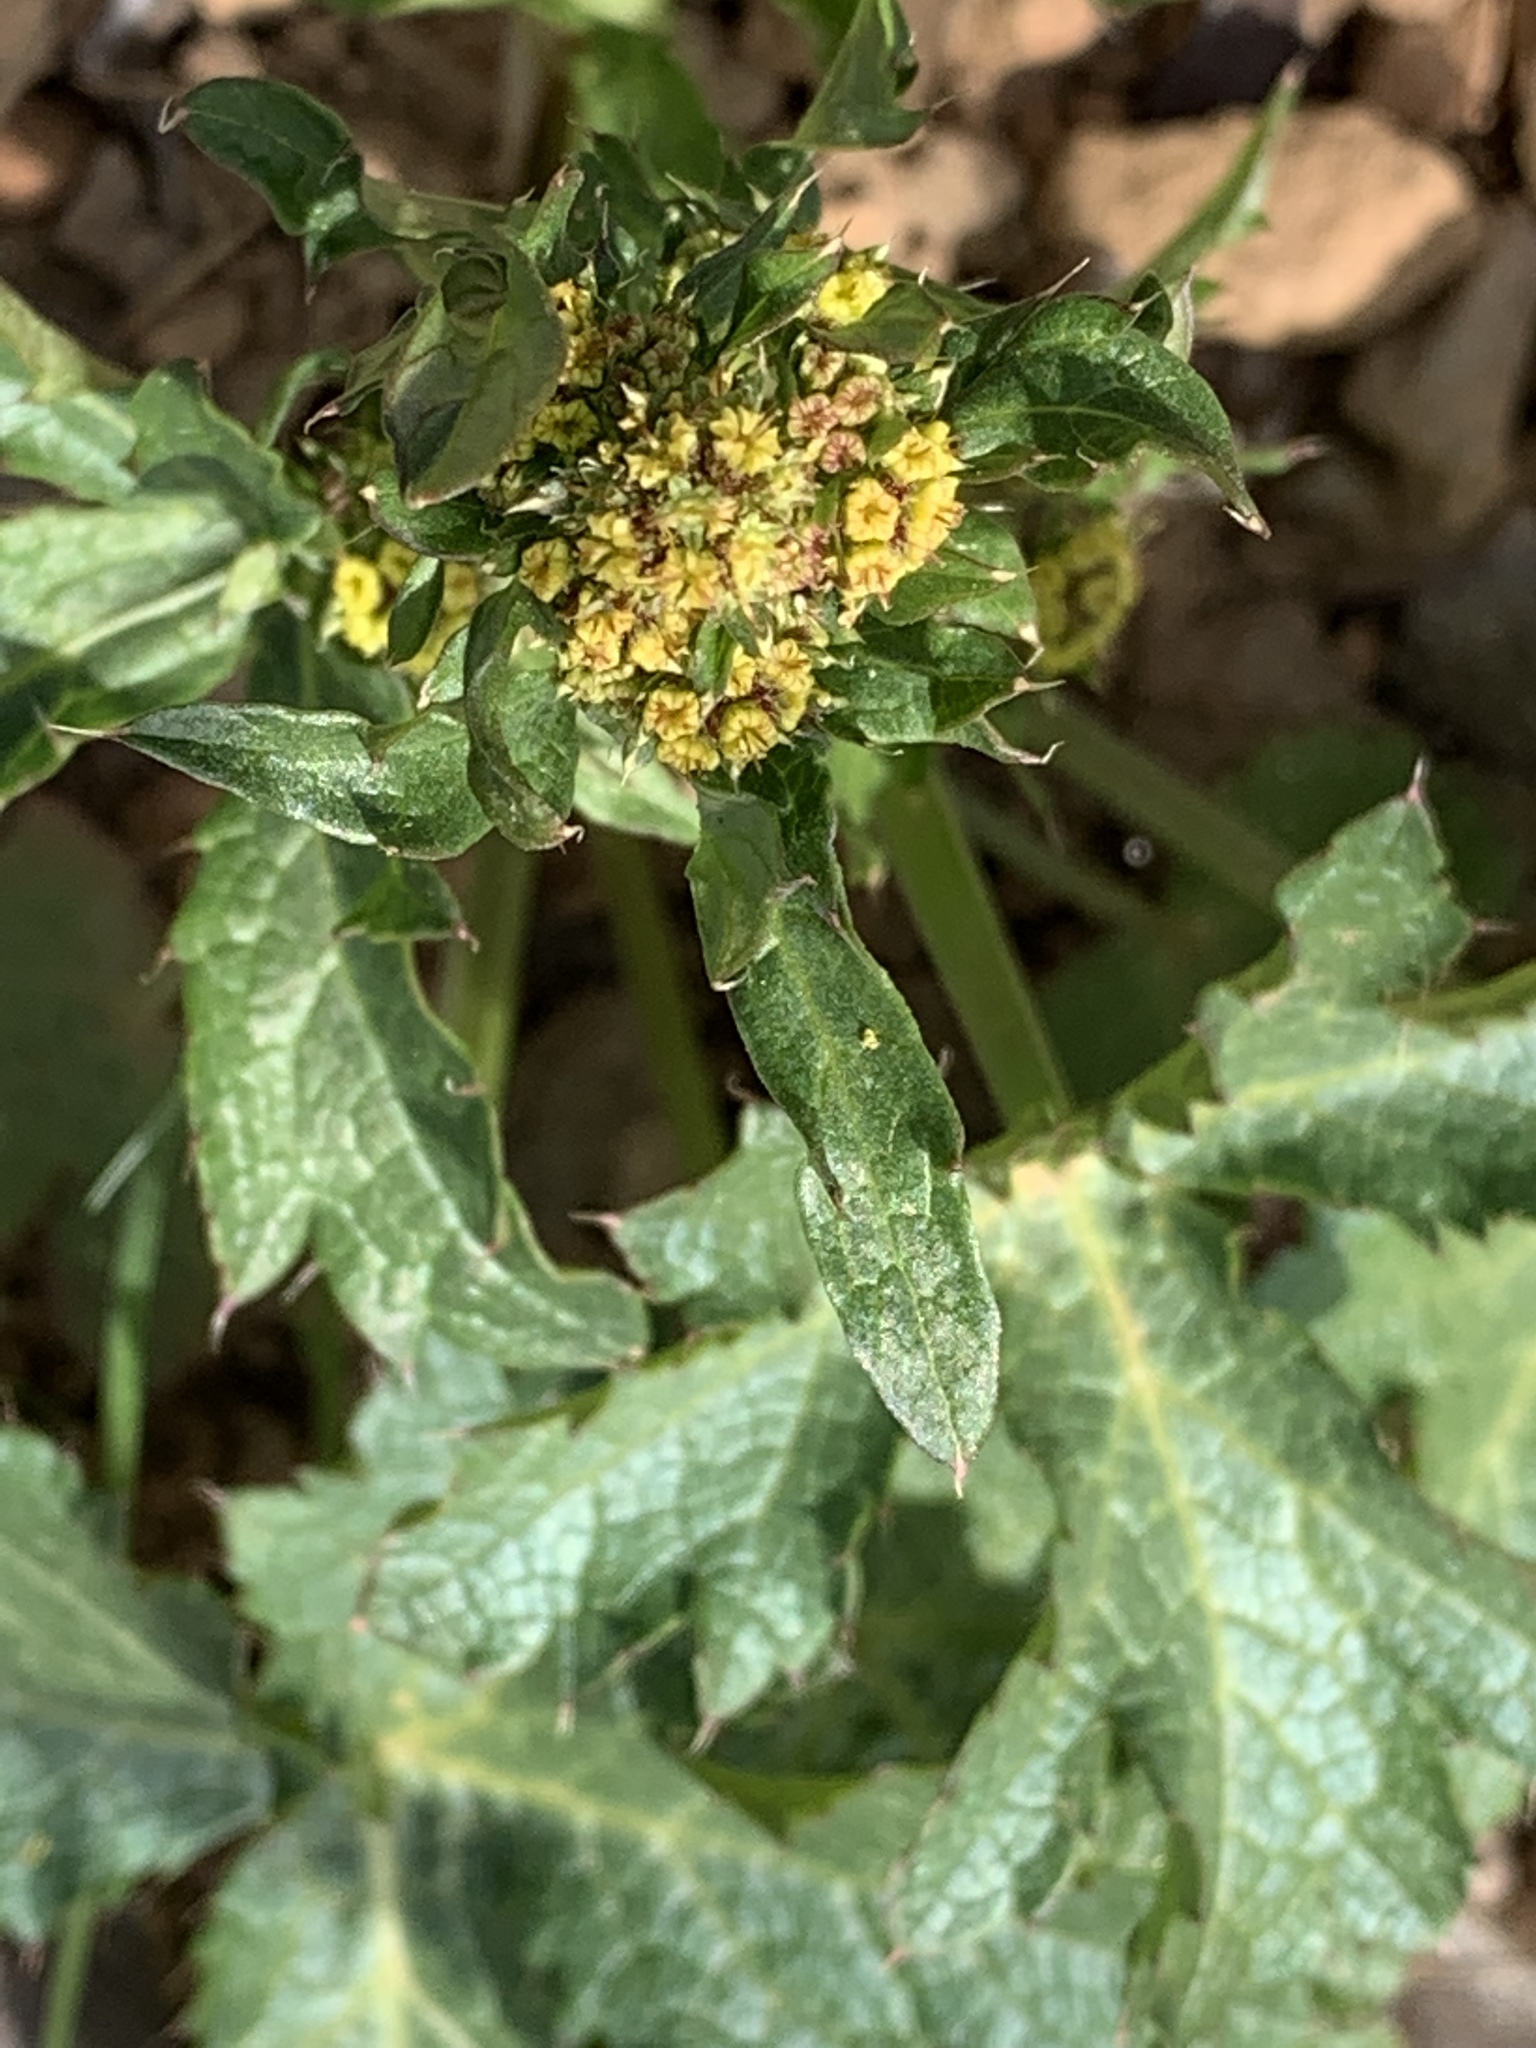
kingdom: Plantae
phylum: Tracheophyta
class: Magnoliopsida
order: Apiales
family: Apiaceae
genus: Sanicula
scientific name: Sanicula laciniata
